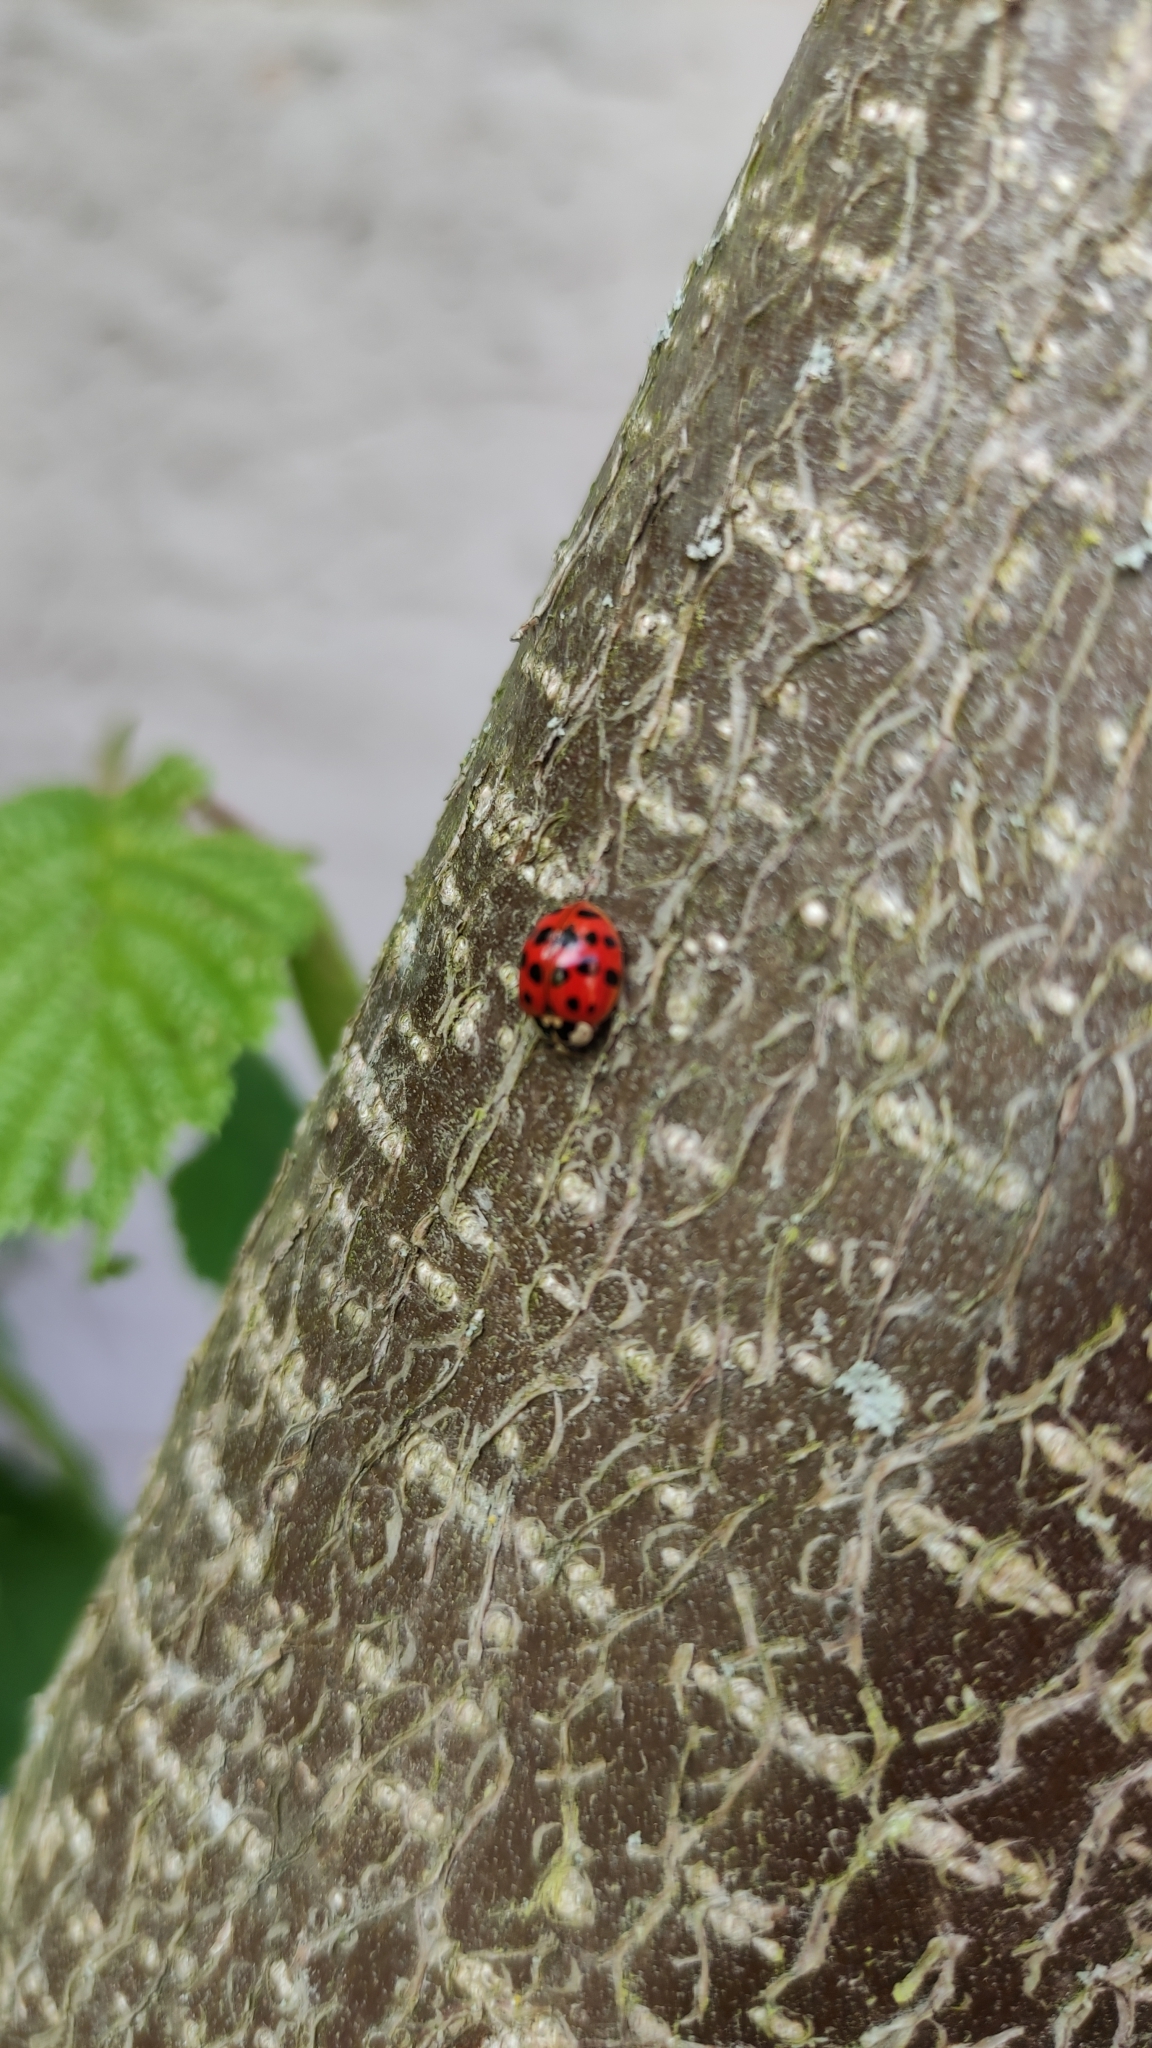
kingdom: Animalia
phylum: Arthropoda
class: Insecta
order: Coleoptera
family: Coccinellidae
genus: Harmonia
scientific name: Harmonia axyridis
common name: Harlequin ladybird
